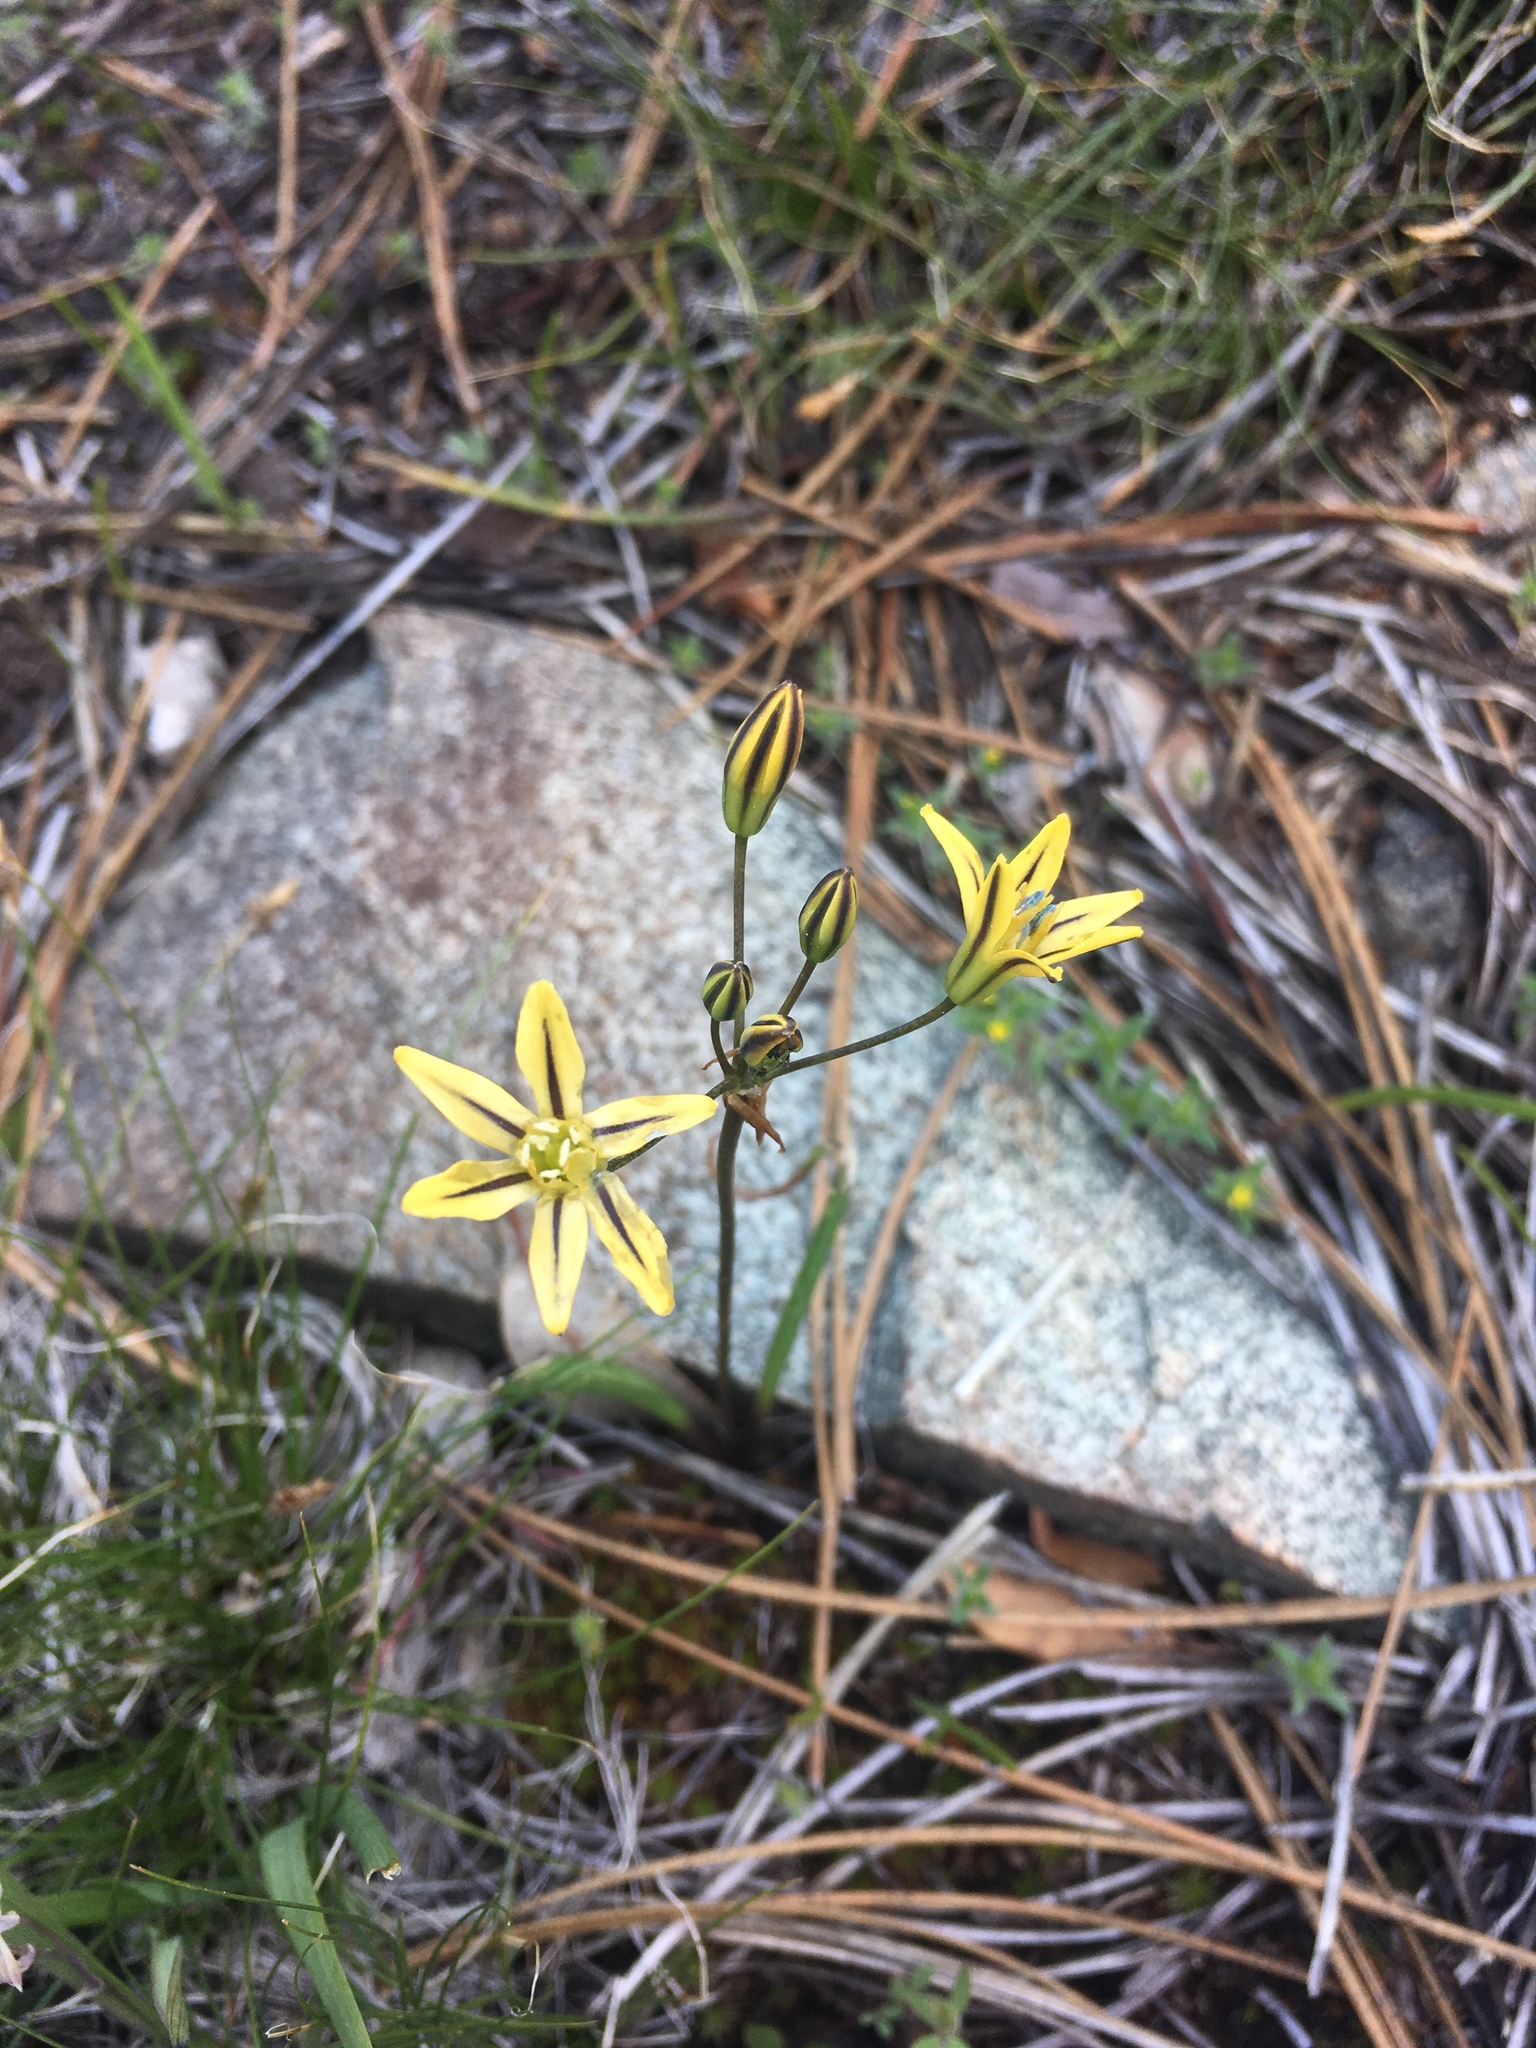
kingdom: Plantae
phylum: Tracheophyta
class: Liliopsida
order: Asparagales
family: Asparagaceae
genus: Triteleia
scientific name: Triteleia ixioides
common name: Yellow-brodiaea
